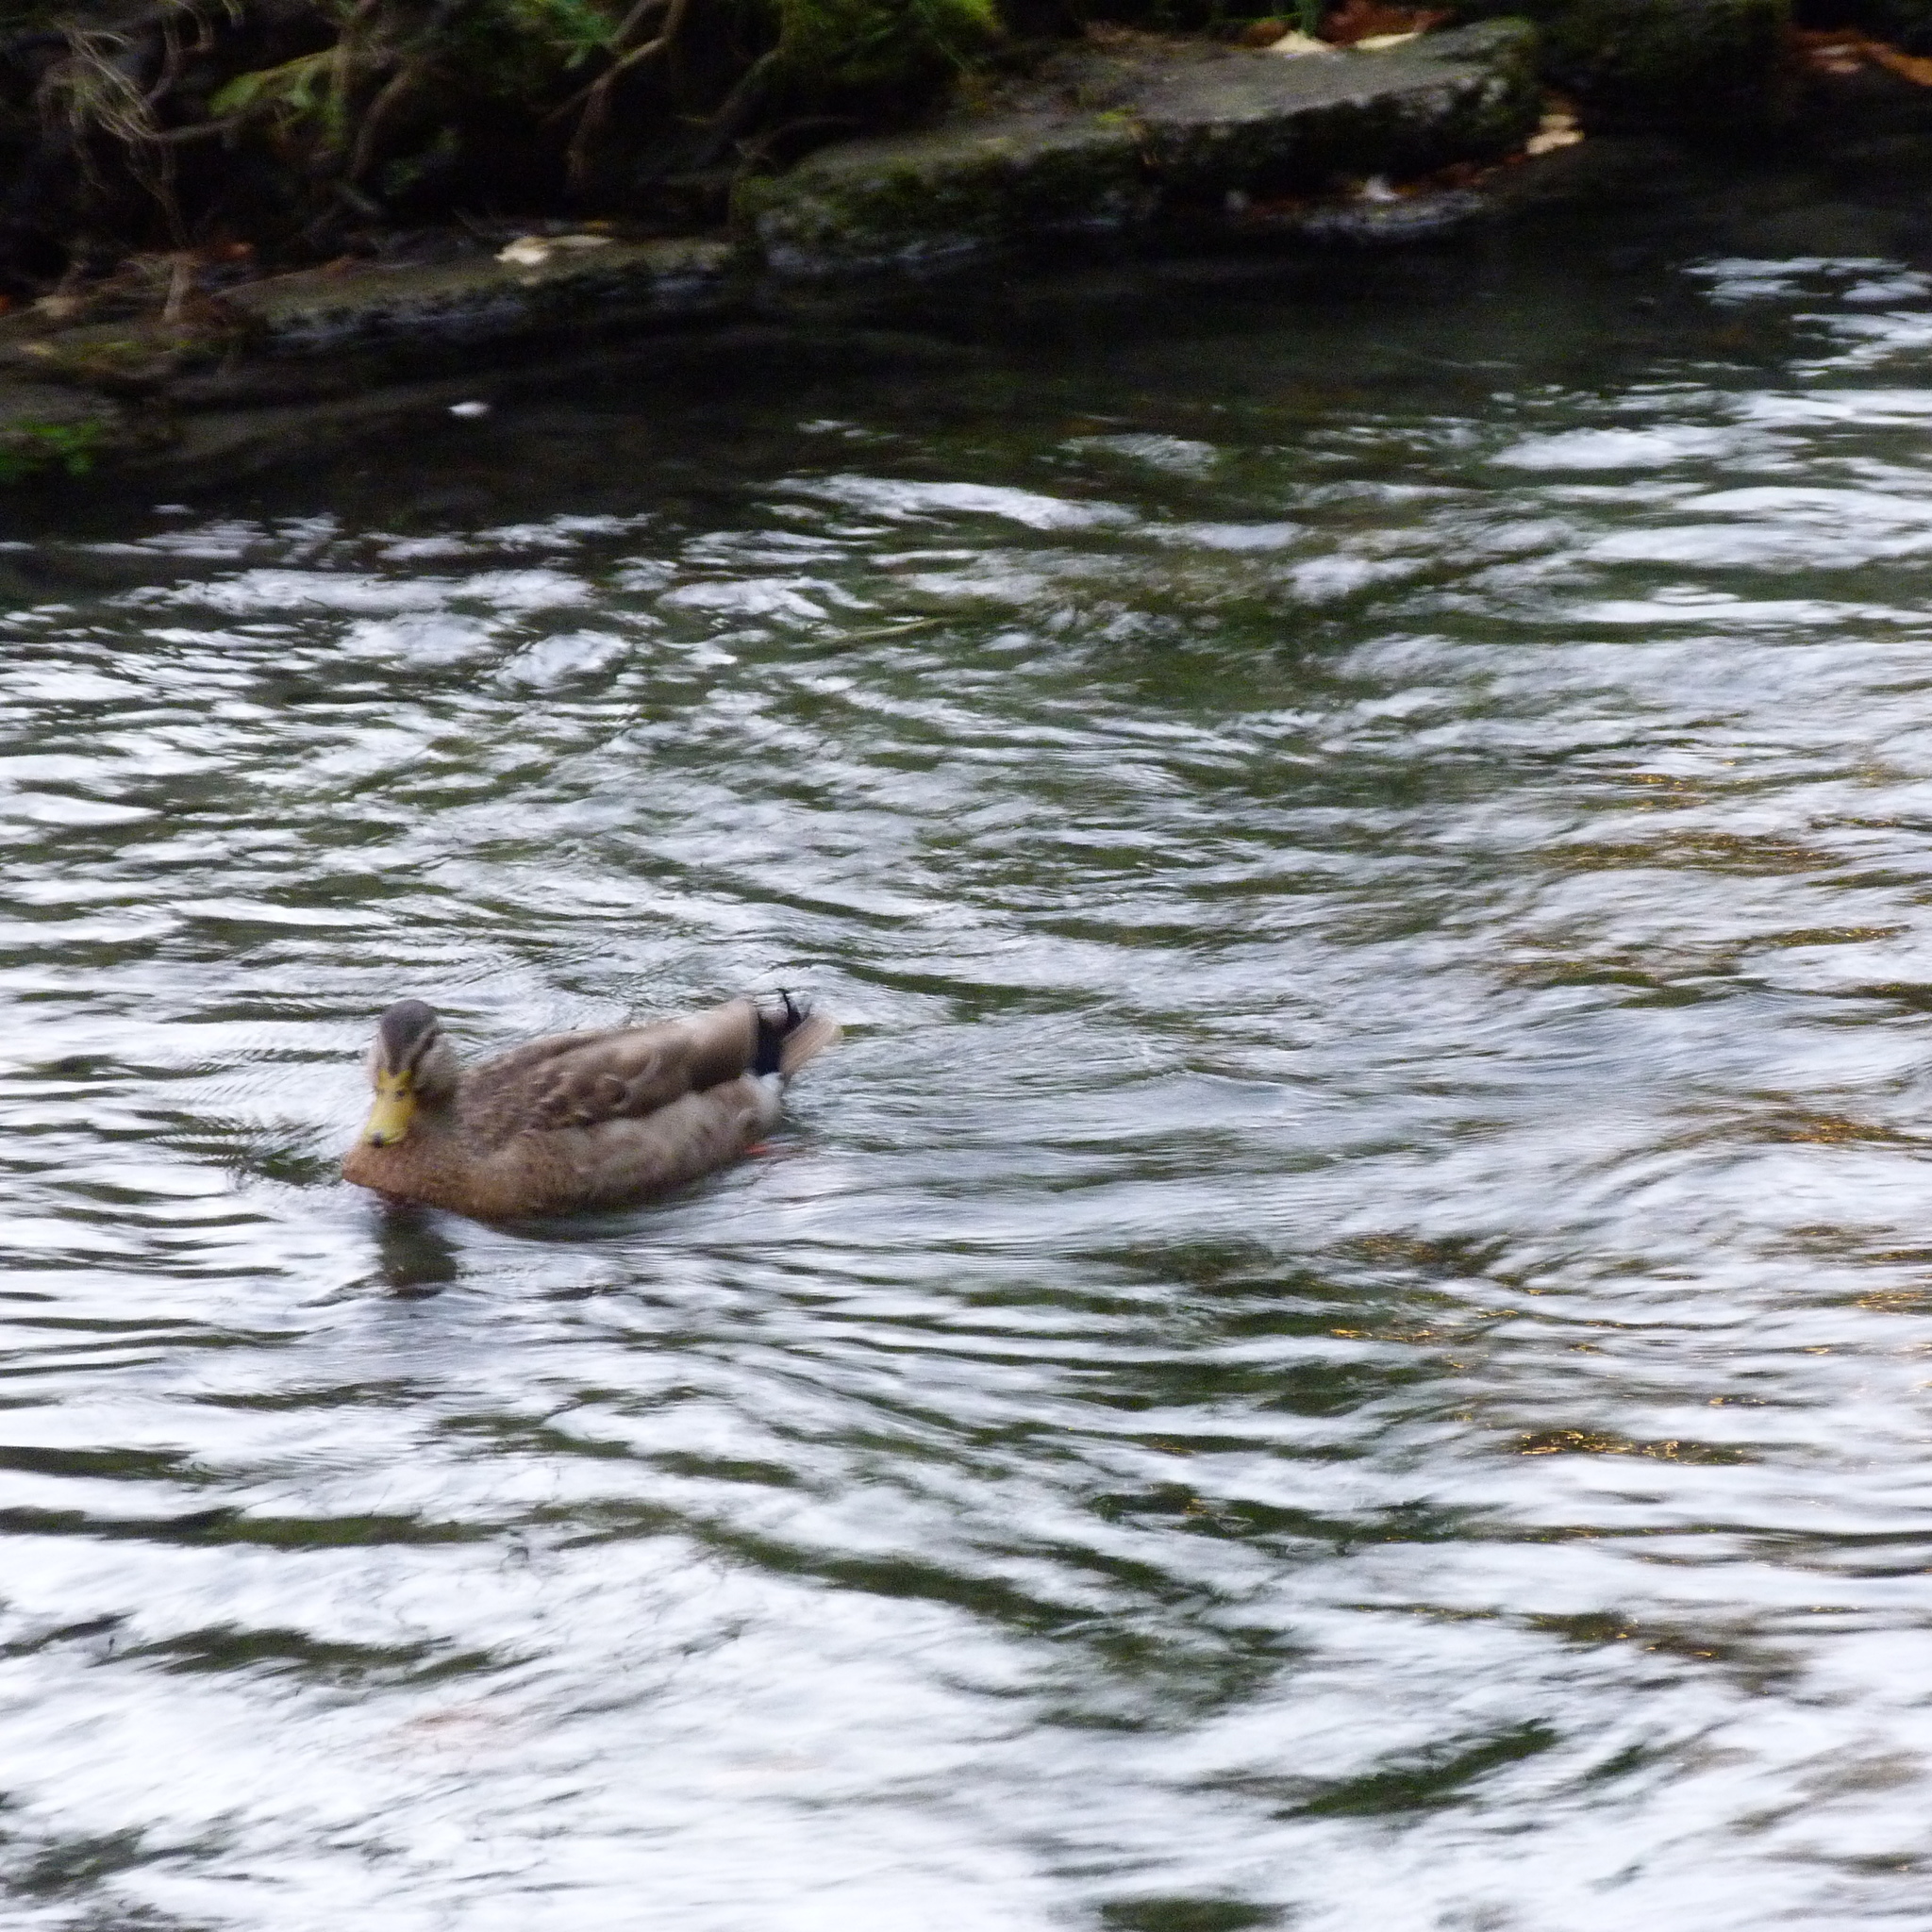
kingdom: Animalia
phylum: Chordata
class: Aves
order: Anseriformes
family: Anatidae
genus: Anas
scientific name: Anas platyrhynchos
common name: Mallard
